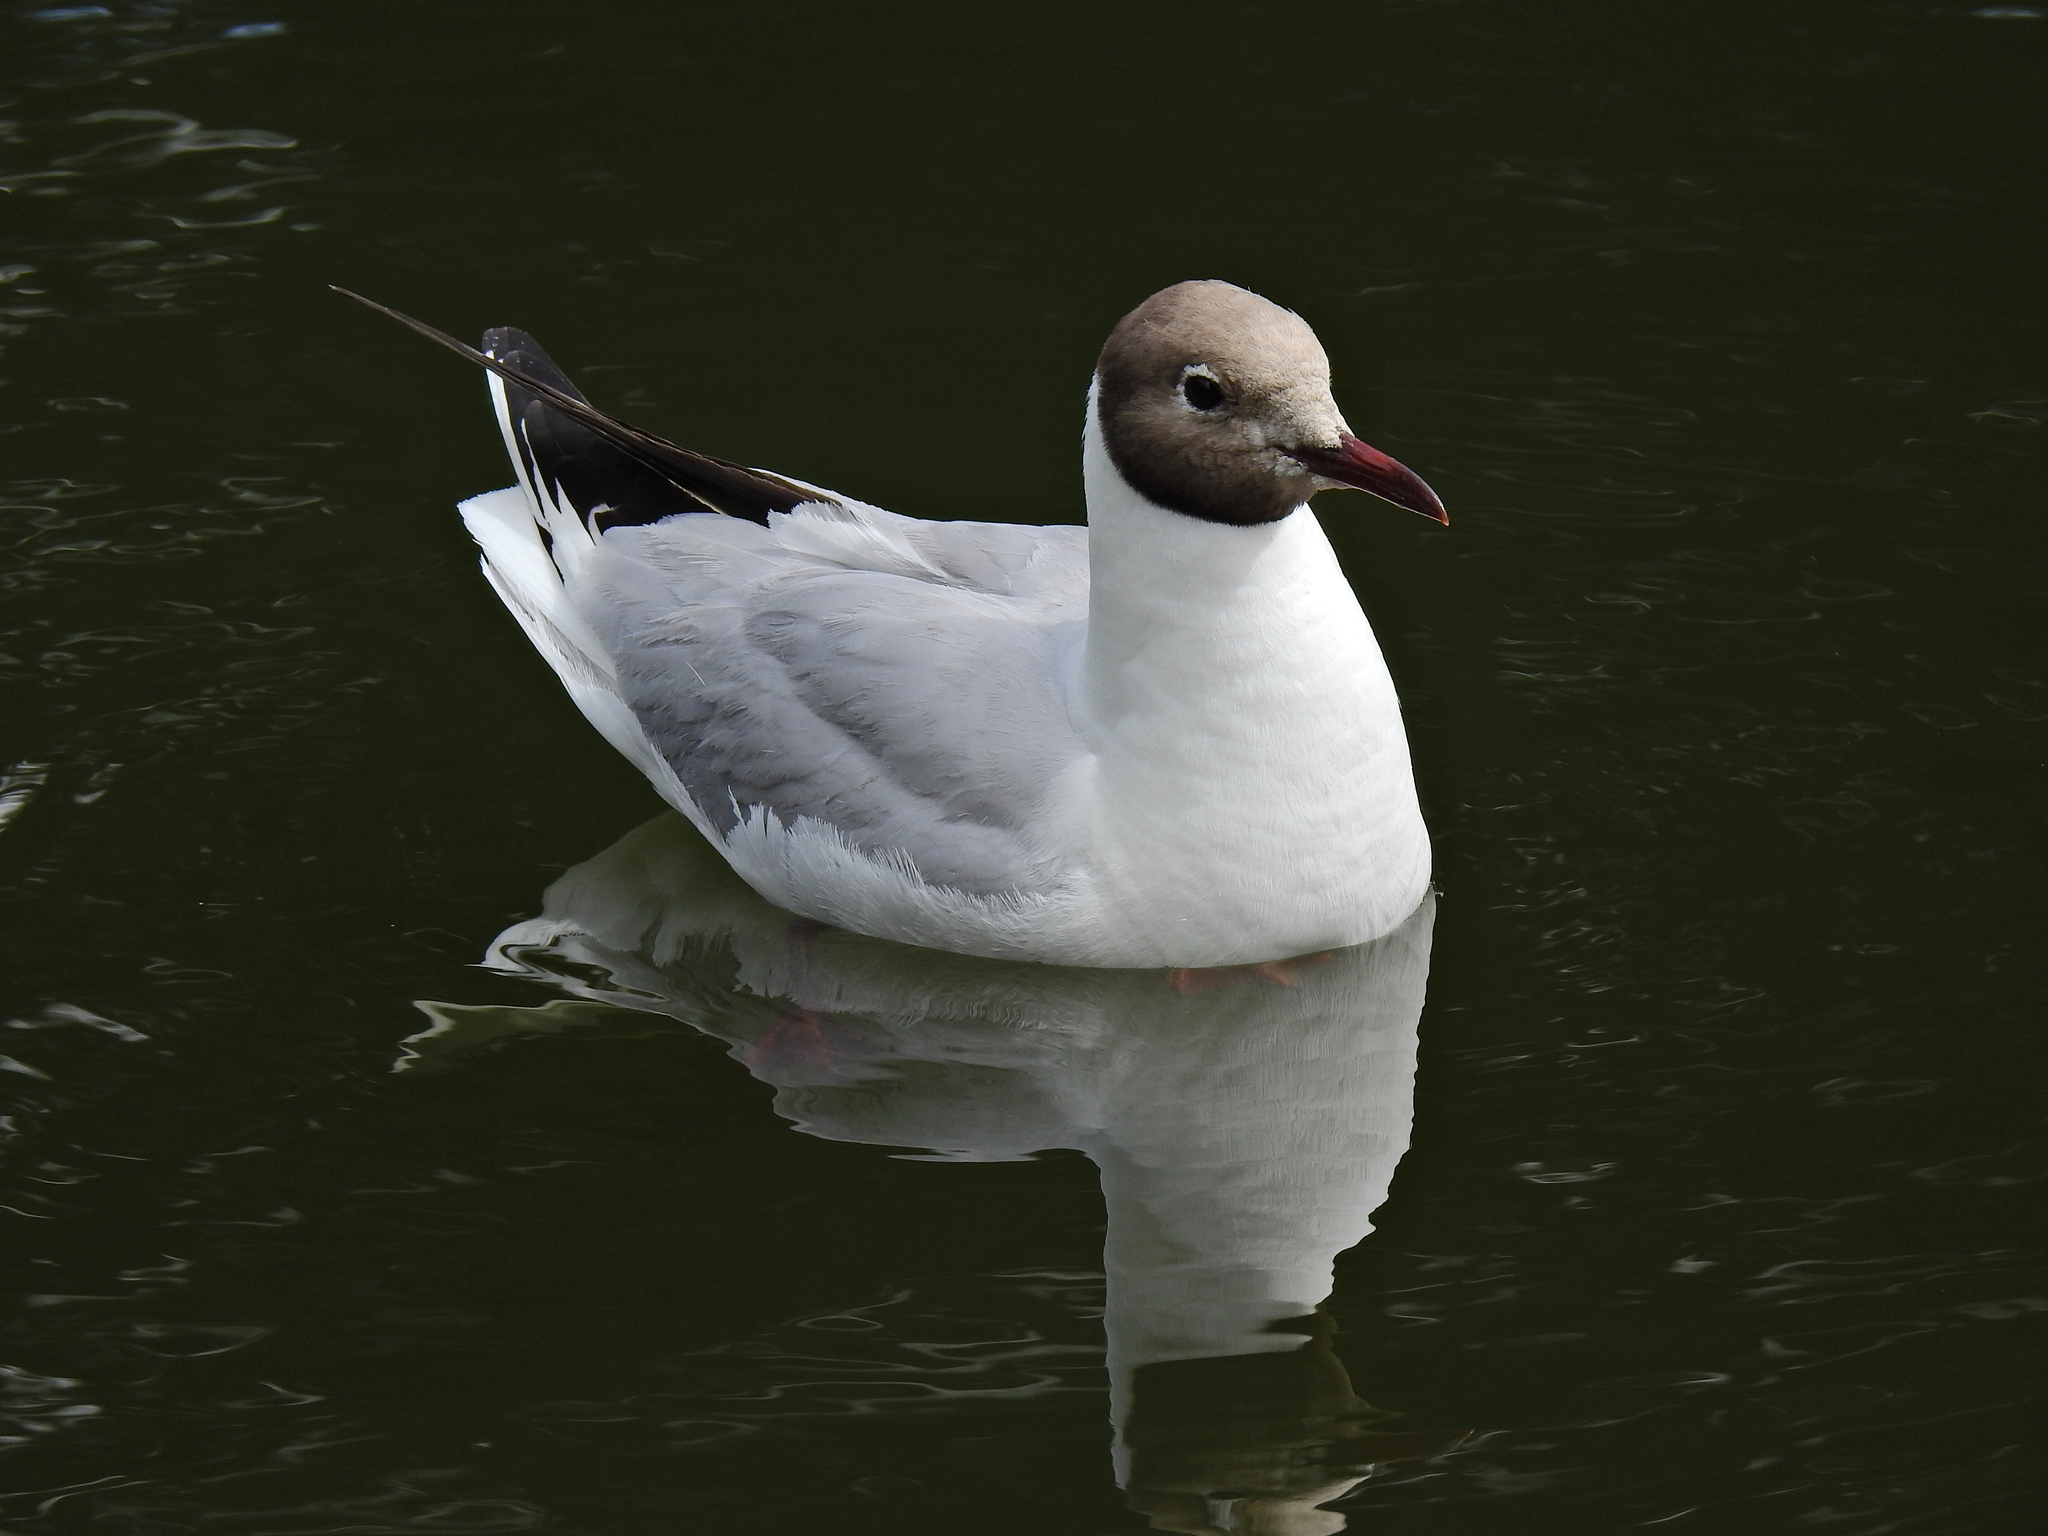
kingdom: Animalia
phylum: Chordata
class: Aves
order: Charadriiformes
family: Laridae
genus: Chroicocephalus
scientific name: Chroicocephalus ridibundus
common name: Black-headed gull
